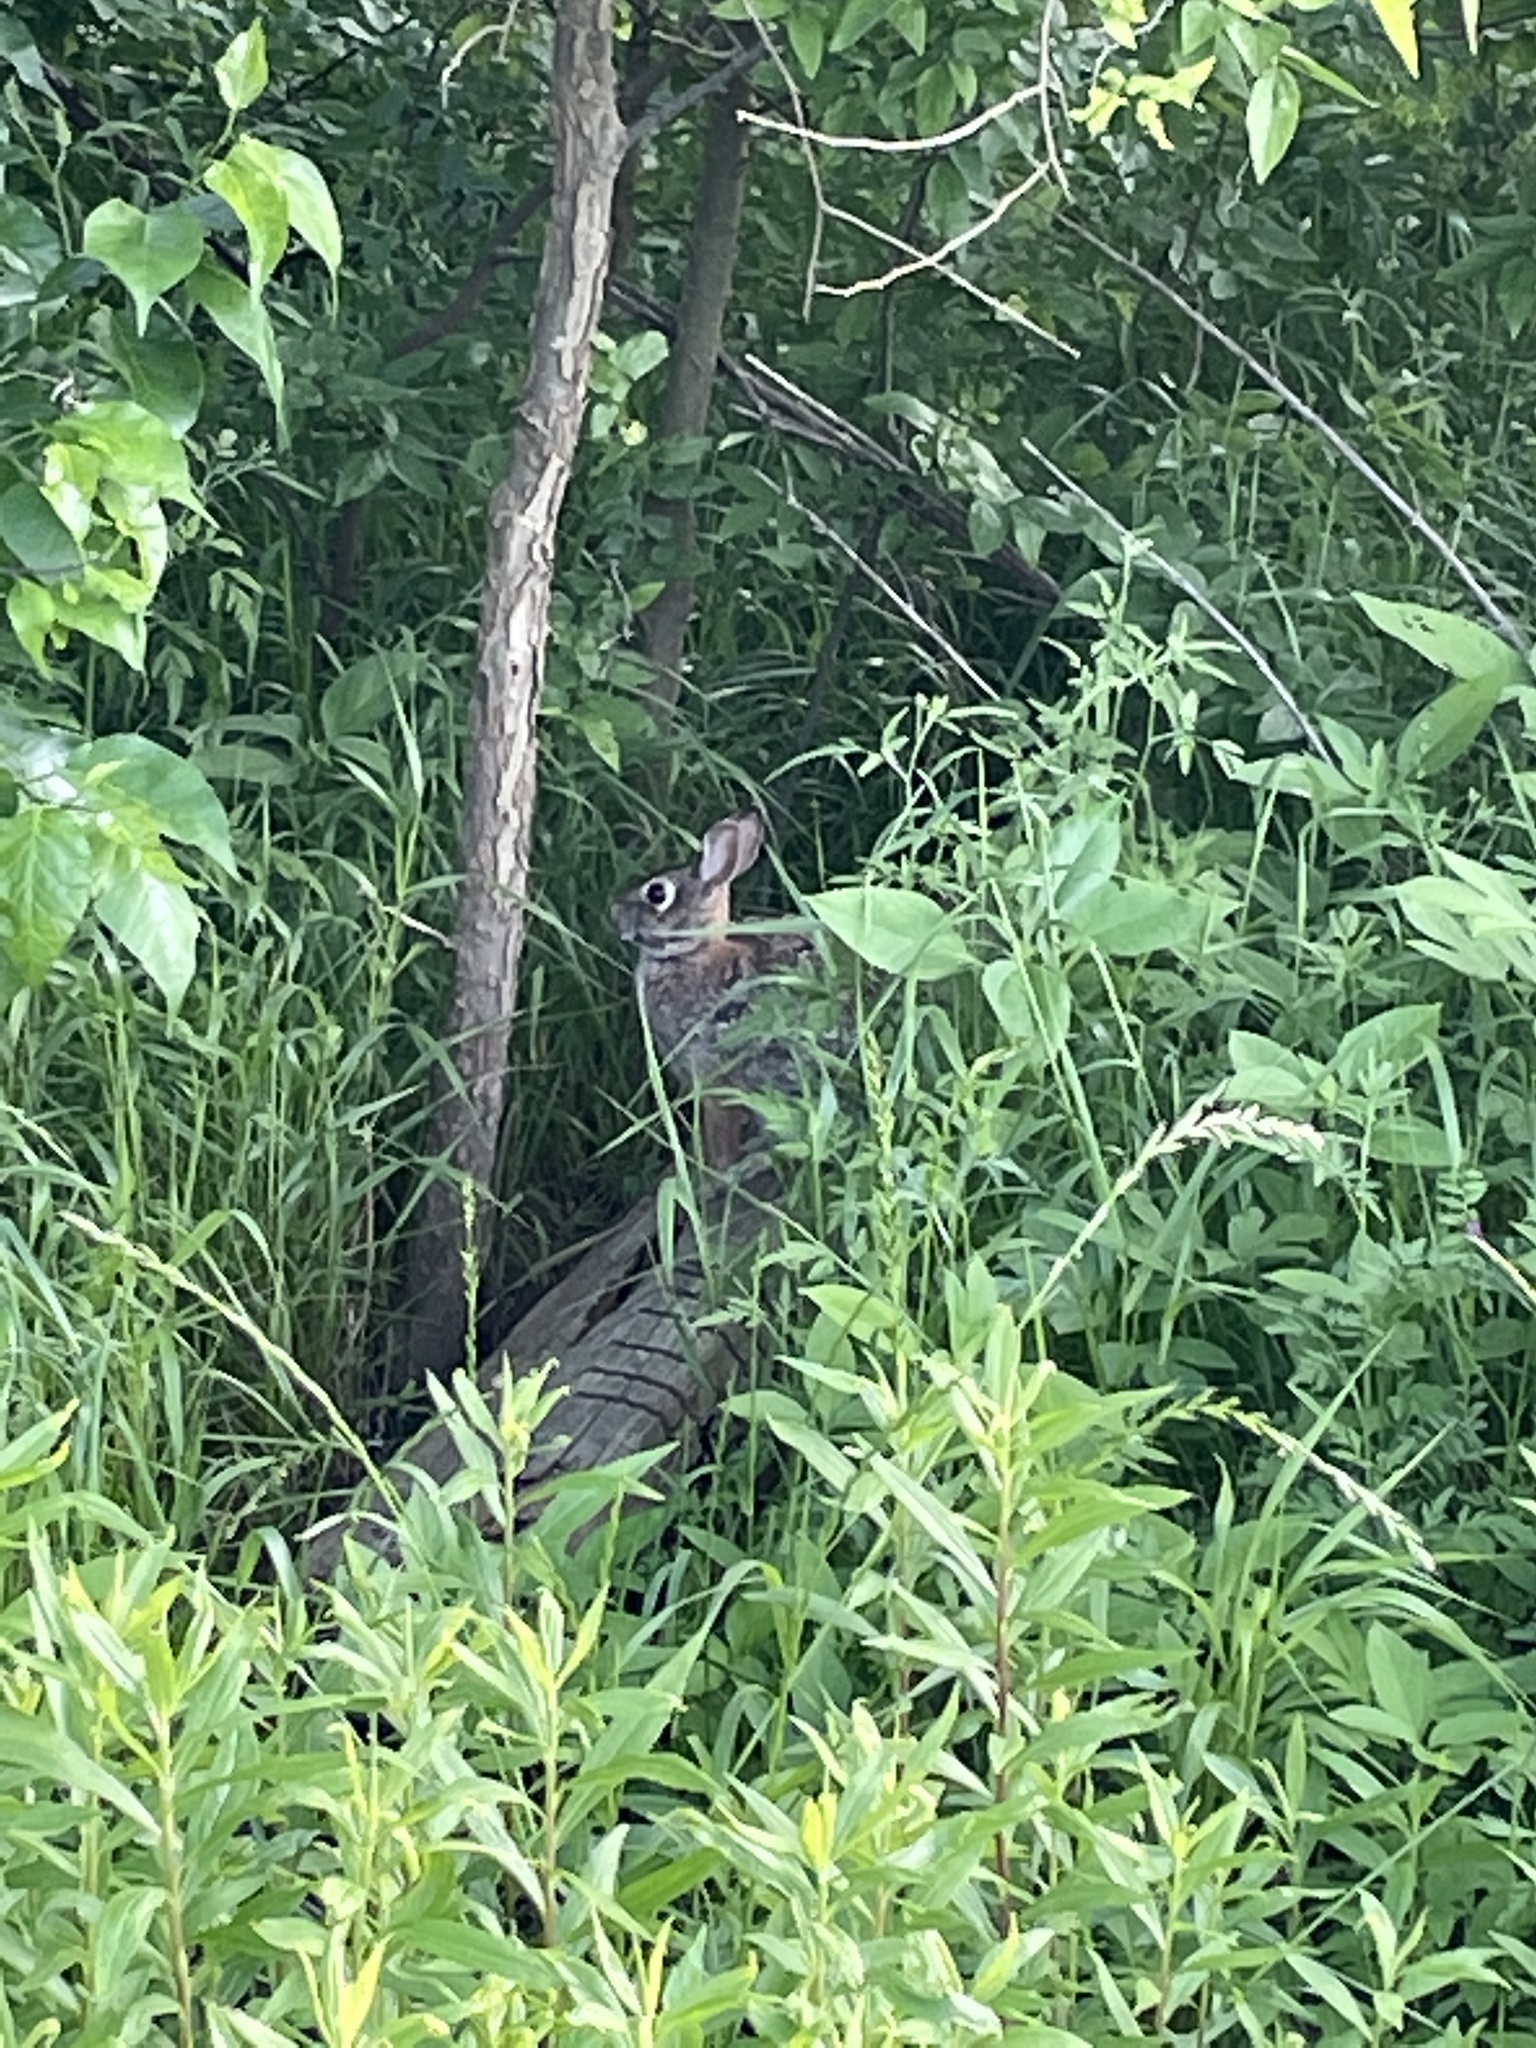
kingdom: Animalia
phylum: Chordata
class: Mammalia
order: Lagomorpha
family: Leporidae
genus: Sylvilagus
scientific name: Sylvilagus floridanus
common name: Eastern cottontail
